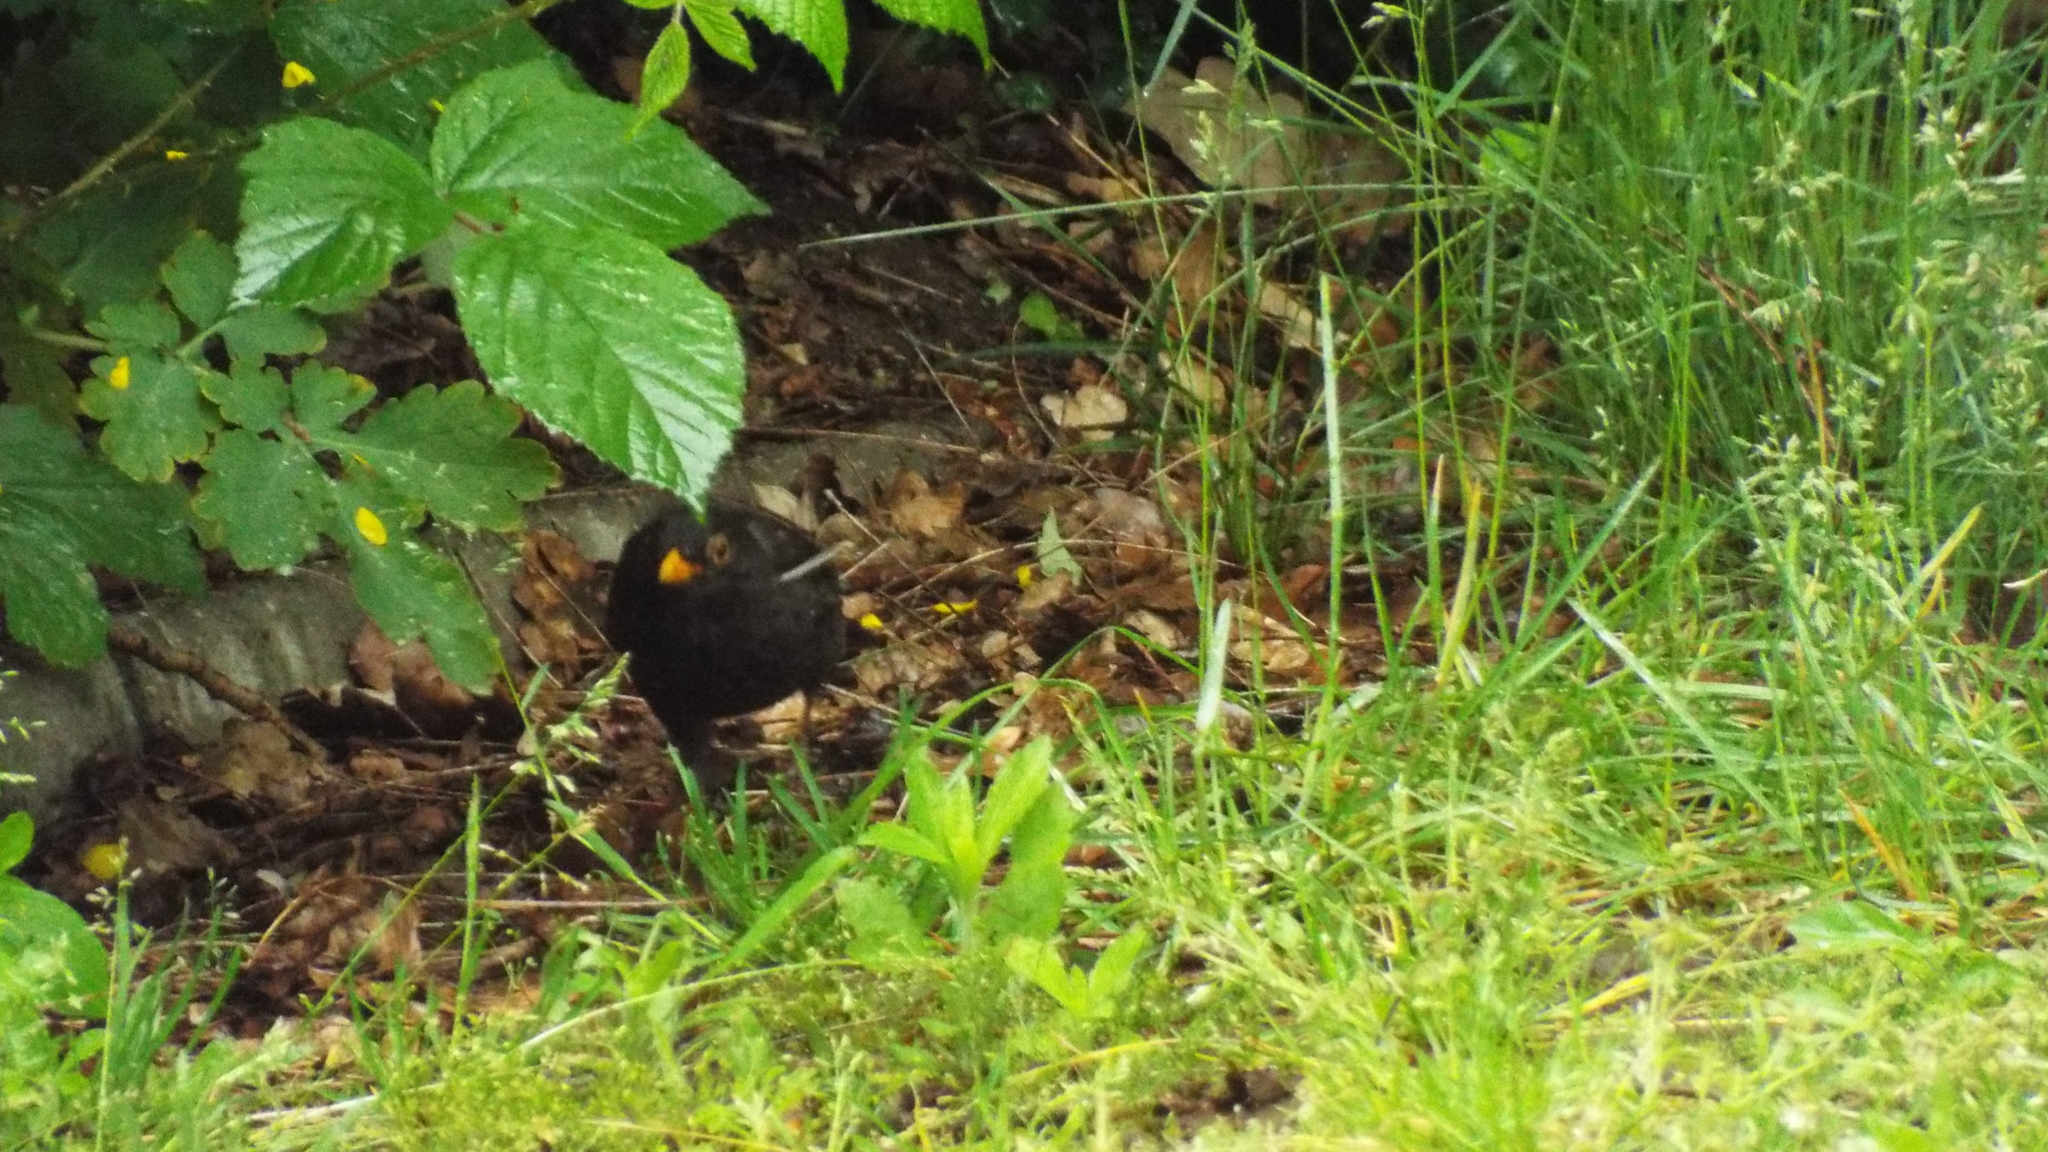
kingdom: Animalia
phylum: Chordata
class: Aves
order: Passeriformes
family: Turdidae
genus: Turdus
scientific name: Turdus merula
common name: Common blackbird
